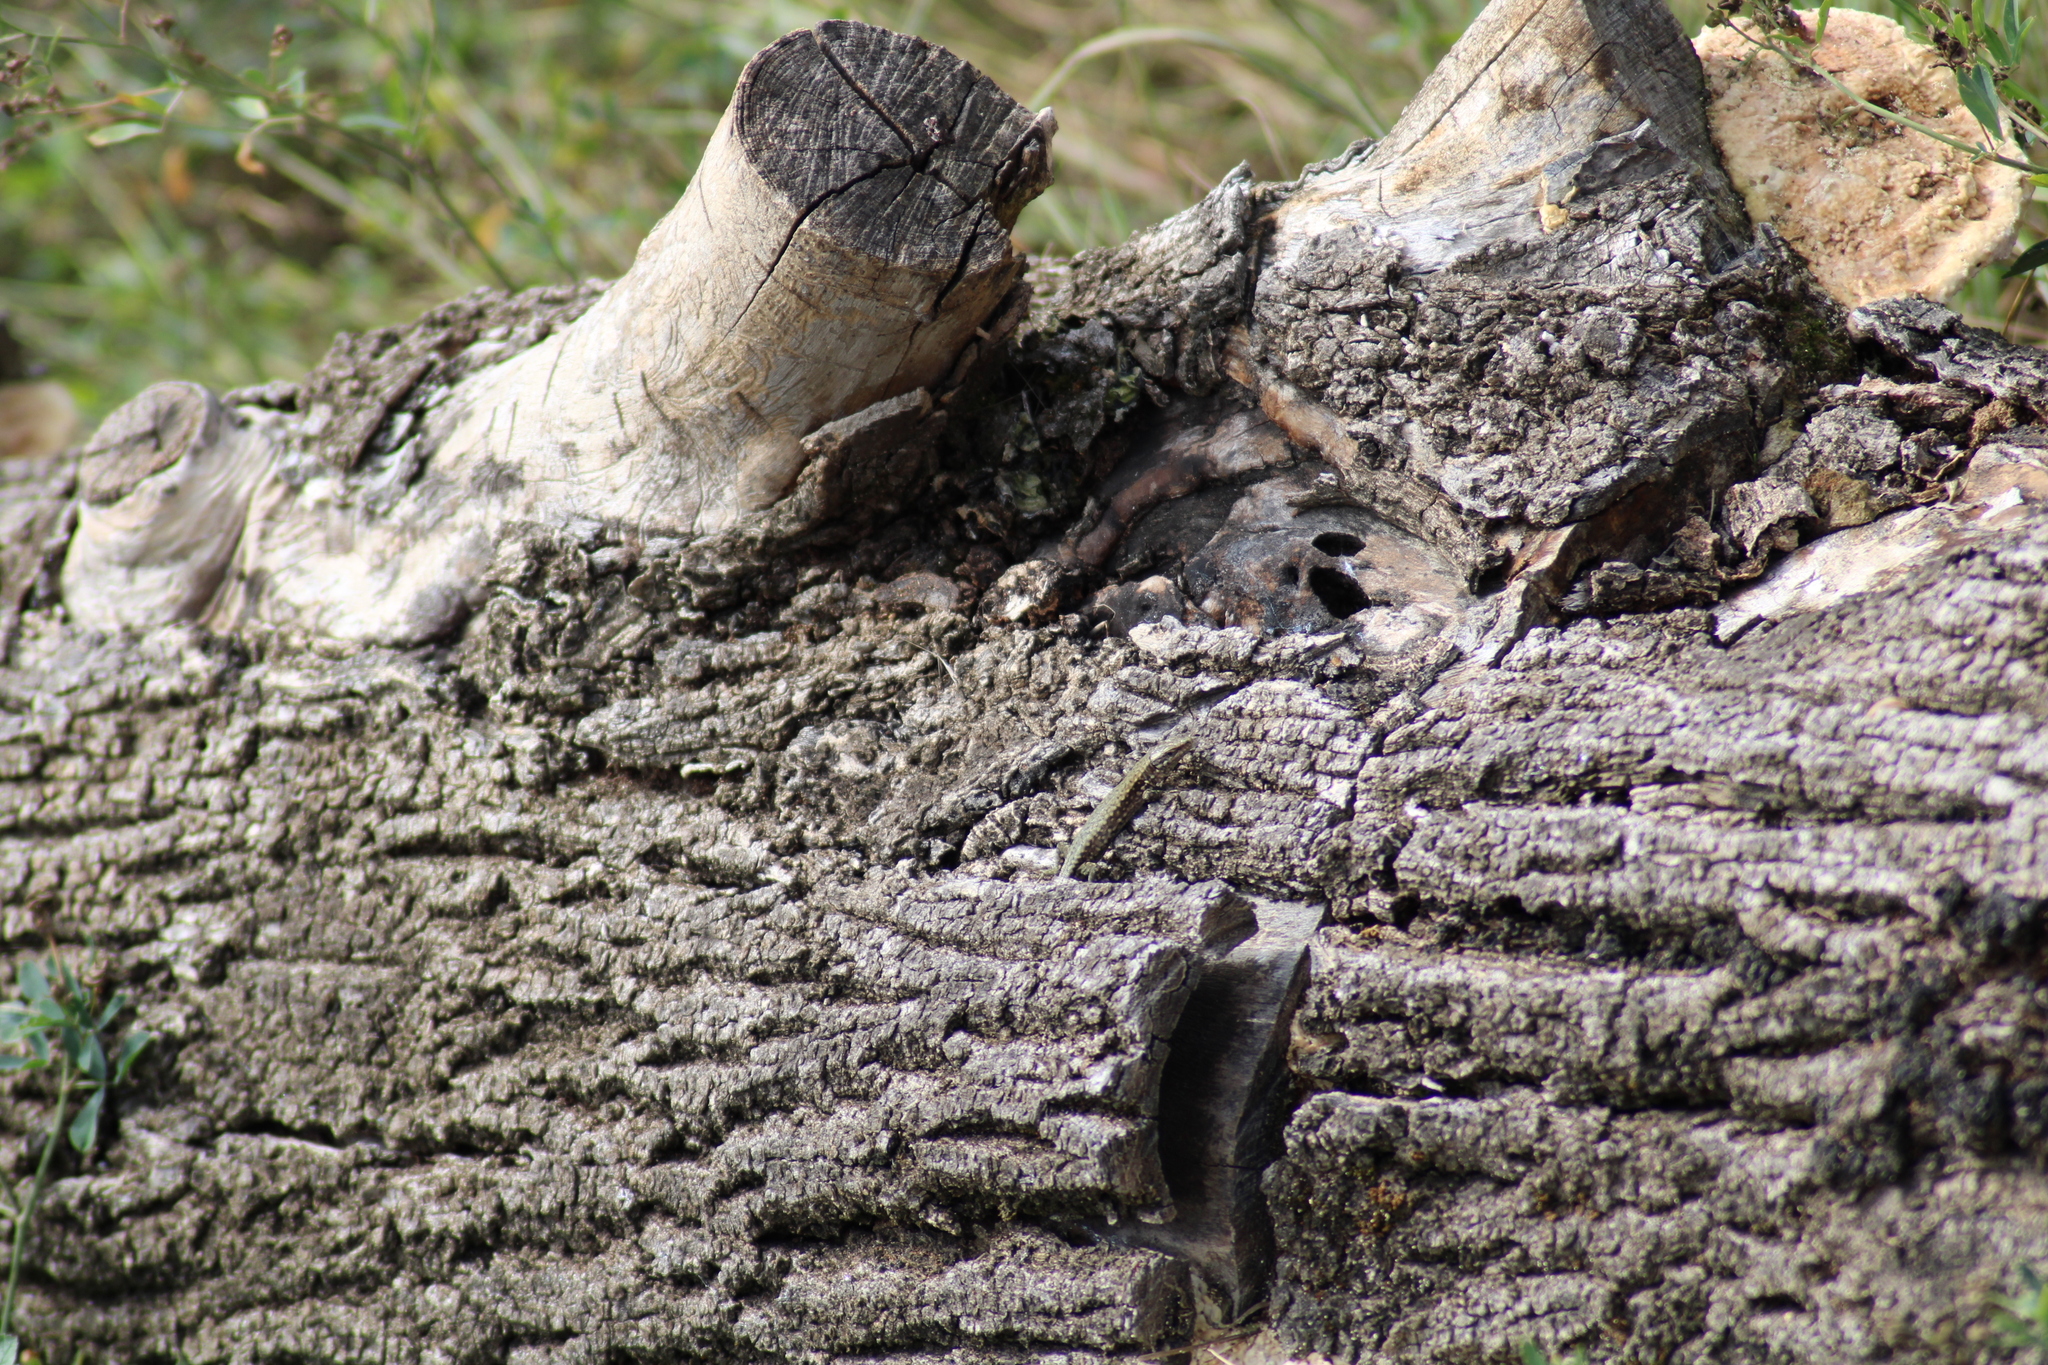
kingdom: Animalia
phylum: Chordata
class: Squamata
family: Lacertidae
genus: Podarcis
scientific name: Podarcis muralis
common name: Common wall lizard
